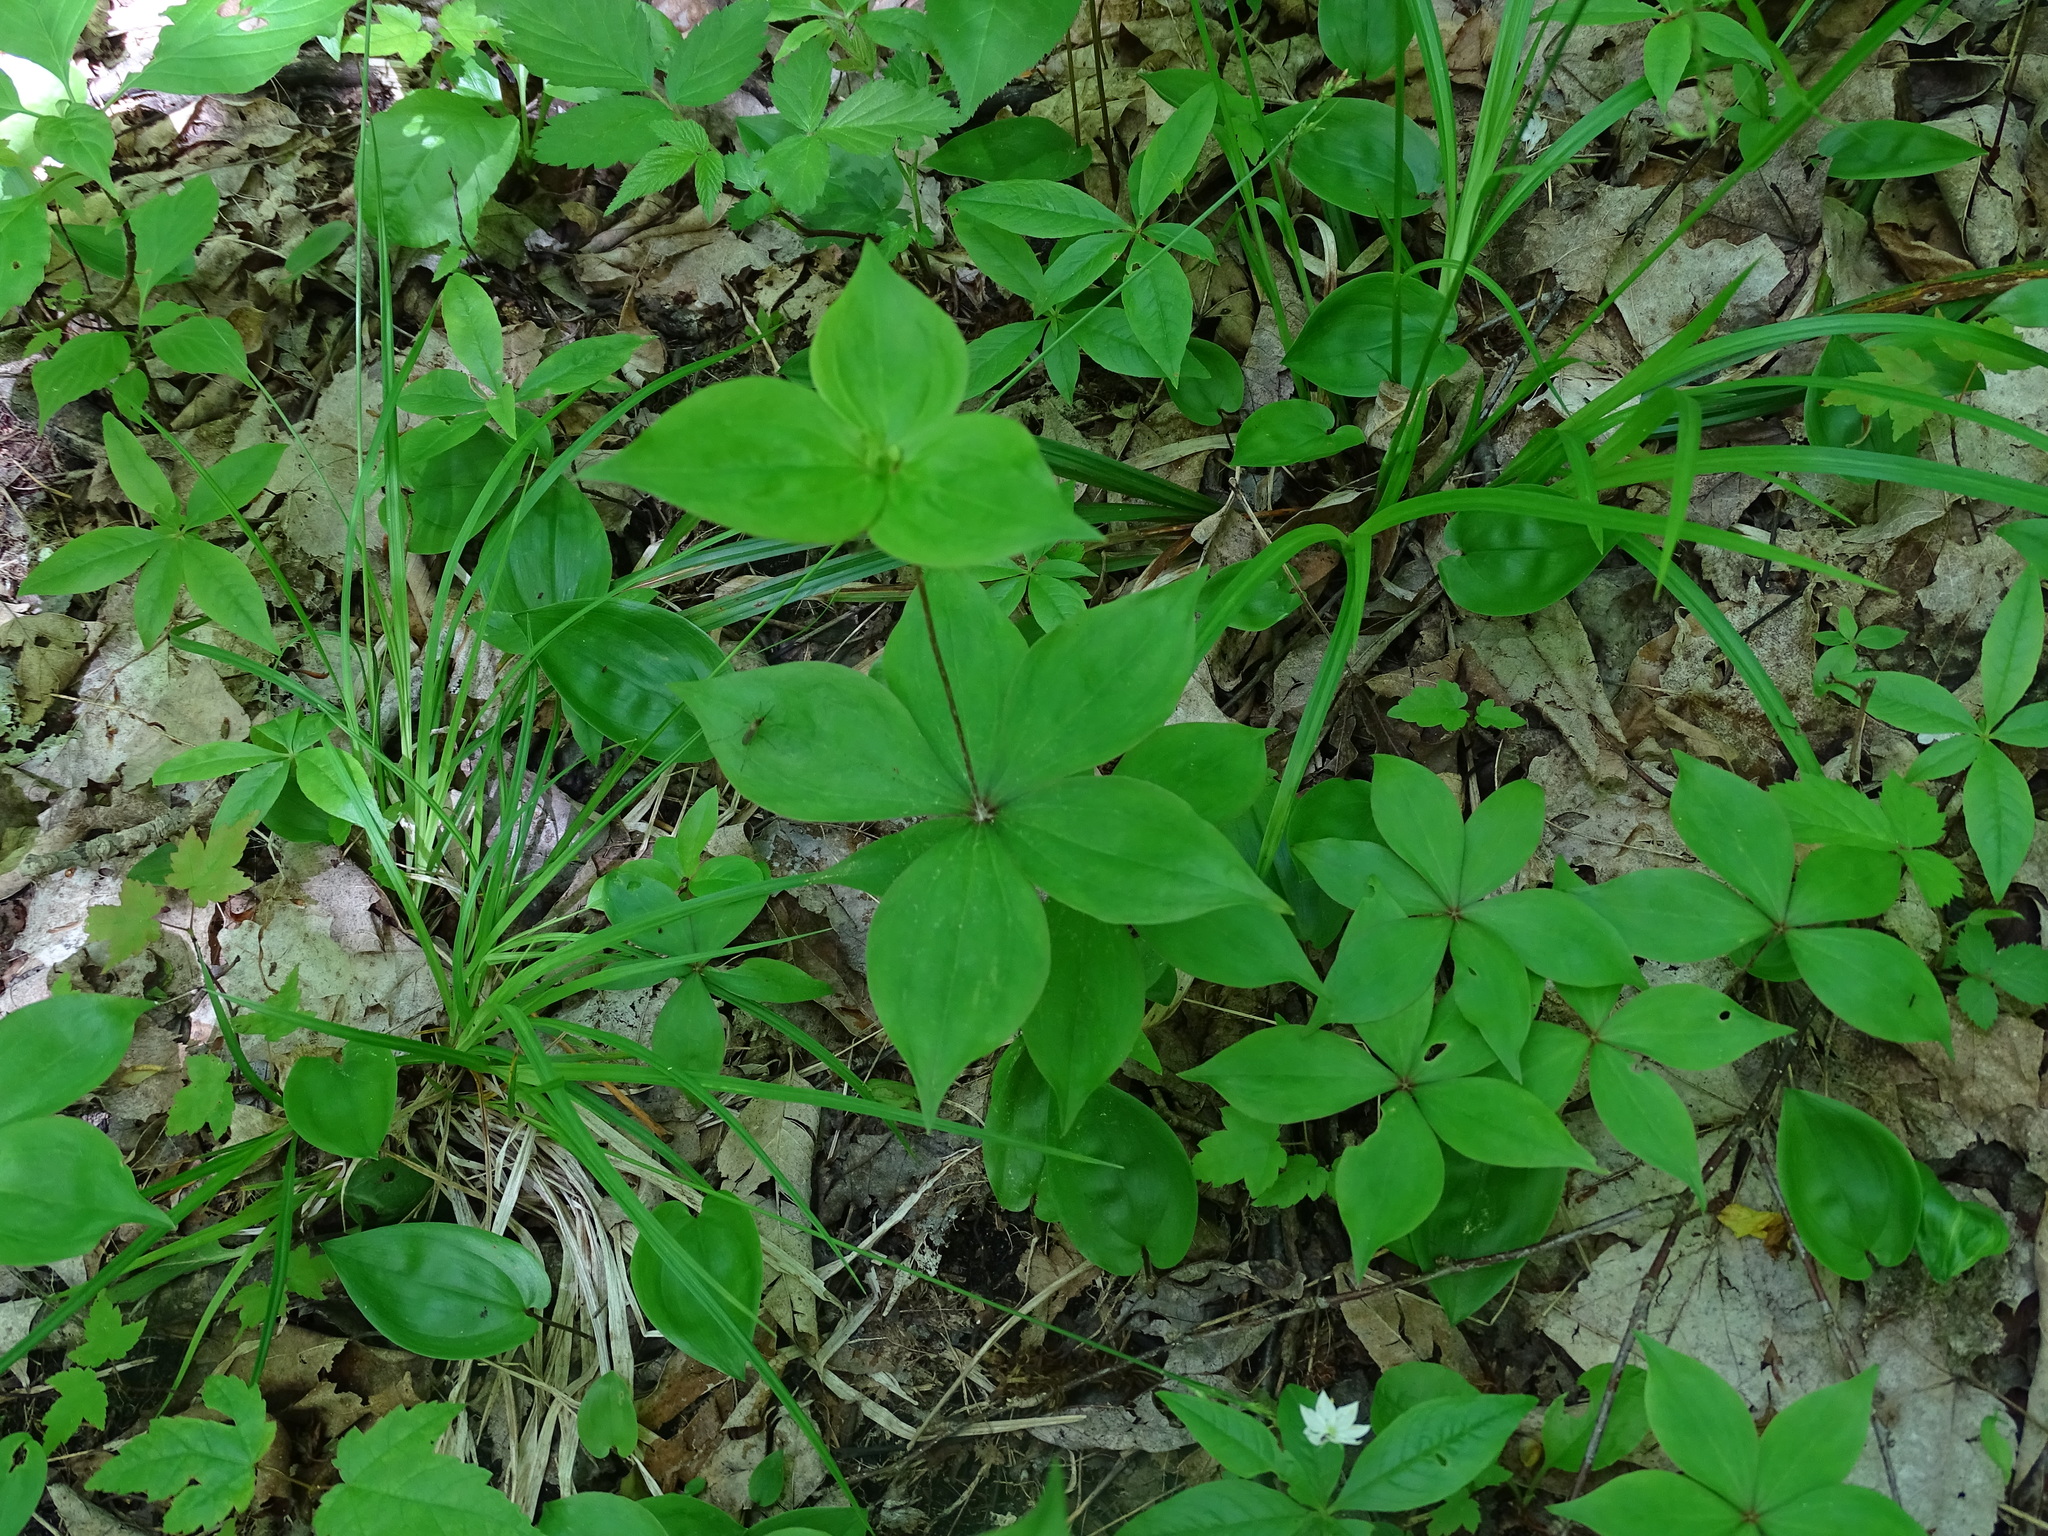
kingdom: Plantae
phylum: Tracheophyta
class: Liliopsida
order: Liliales
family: Liliaceae
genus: Medeola
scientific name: Medeola virginiana
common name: Indian cucumber-root
